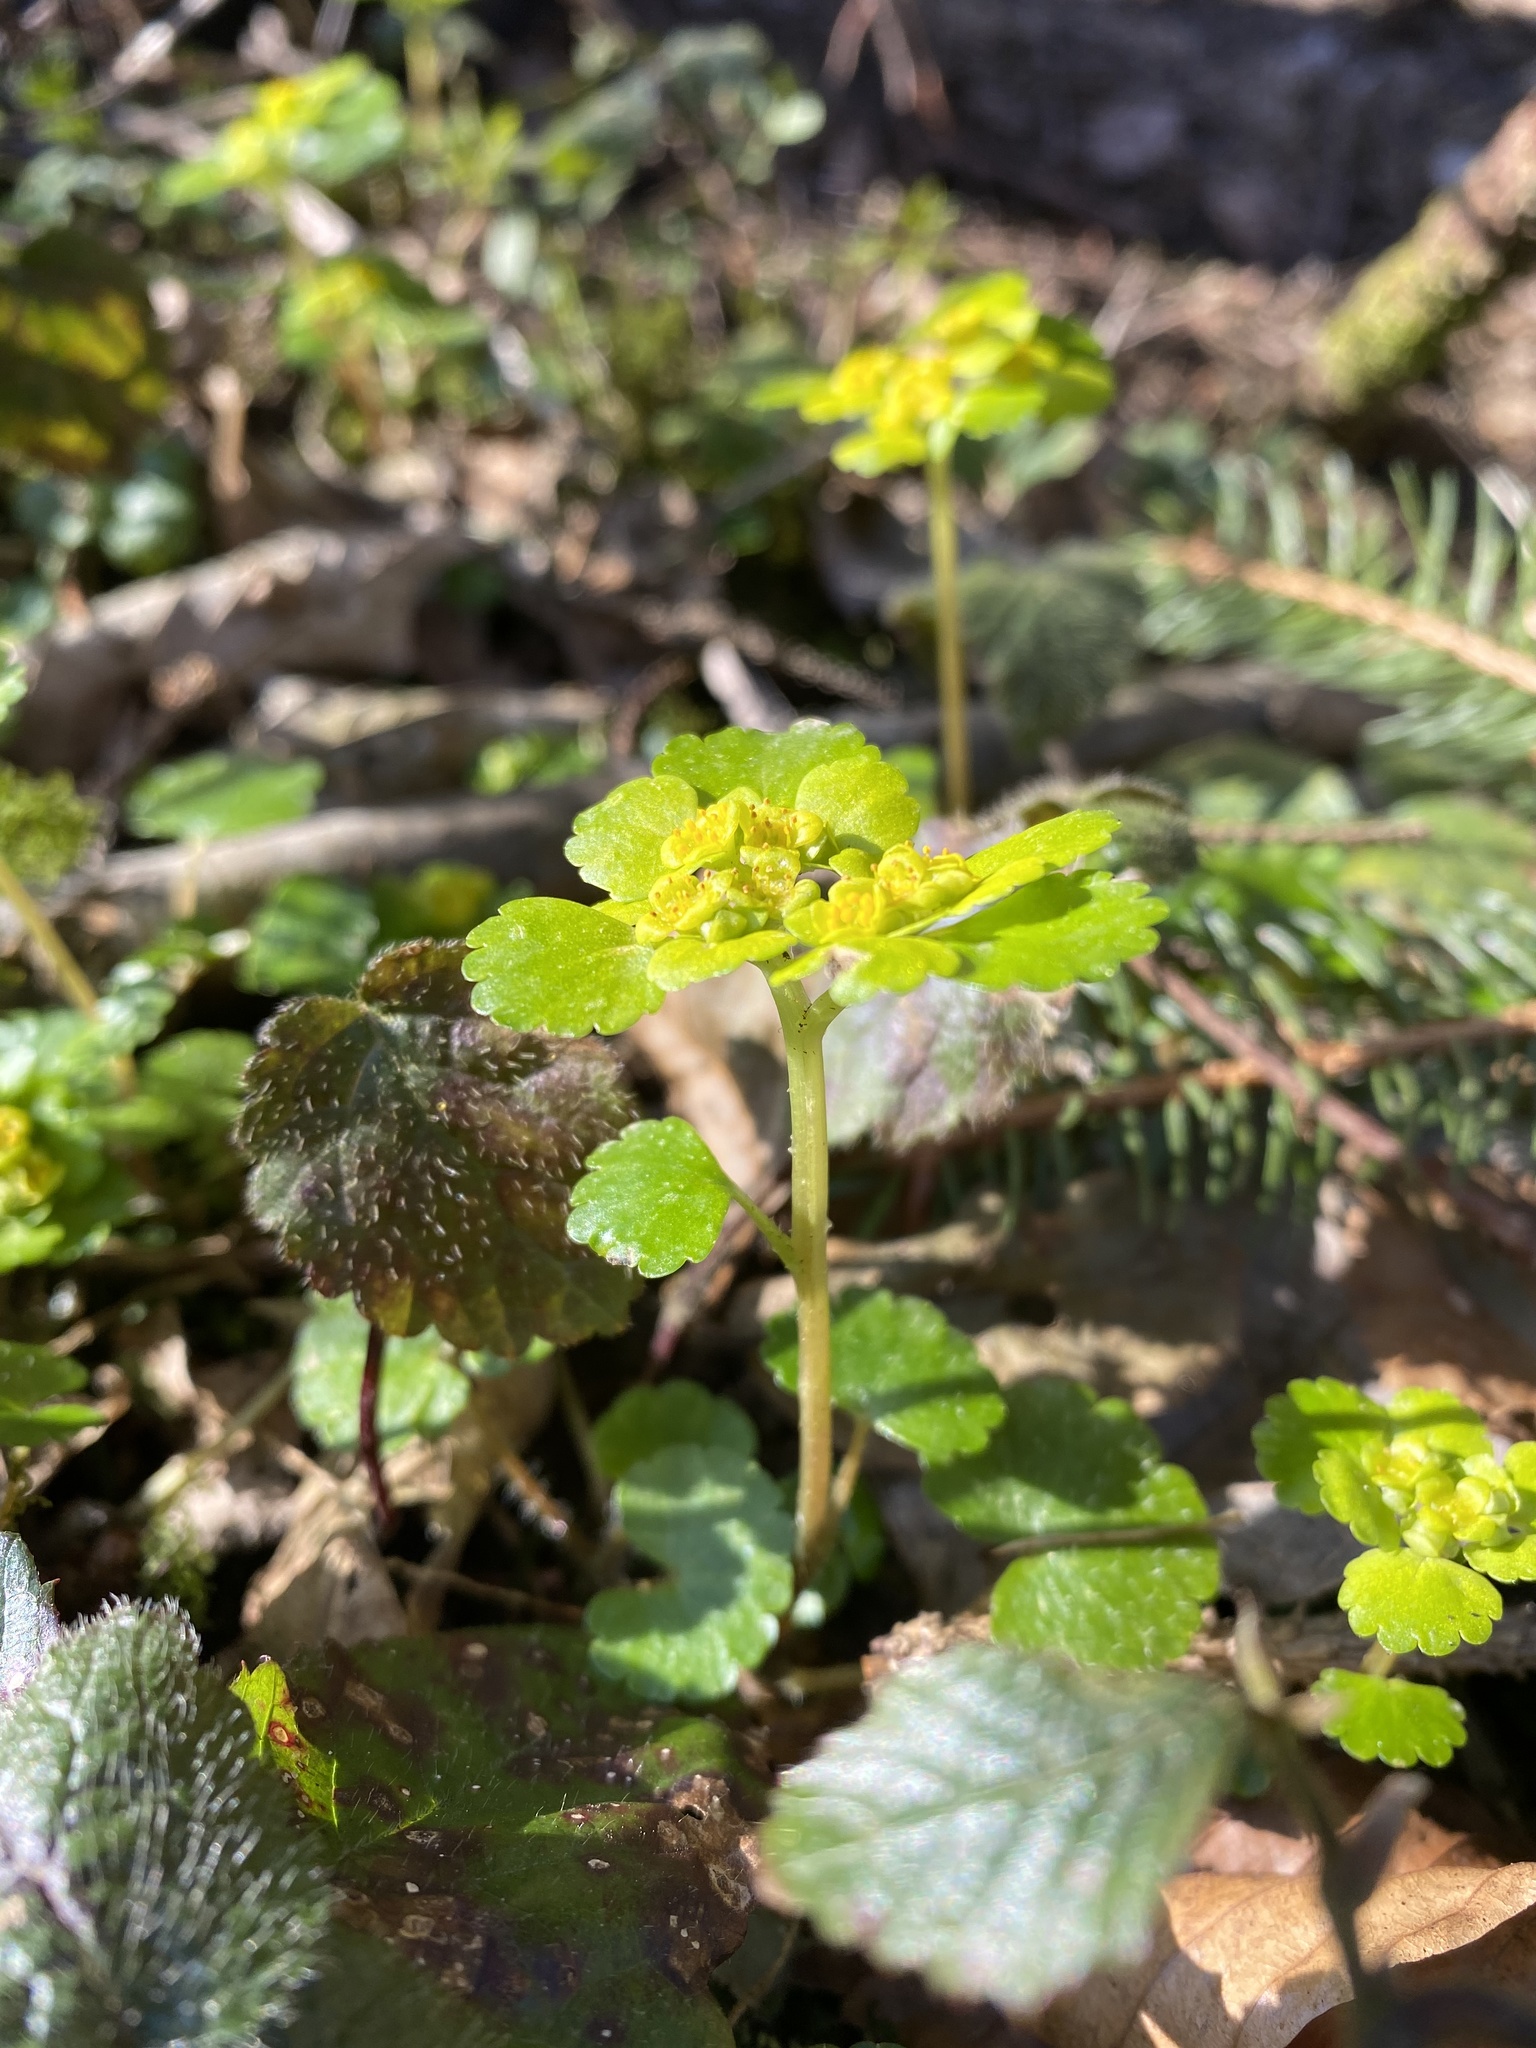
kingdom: Plantae
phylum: Tracheophyta
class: Magnoliopsida
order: Saxifragales
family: Saxifragaceae
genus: Chrysosplenium
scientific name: Chrysosplenium alternifolium
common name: Alternate-leaved golden-saxifrage
